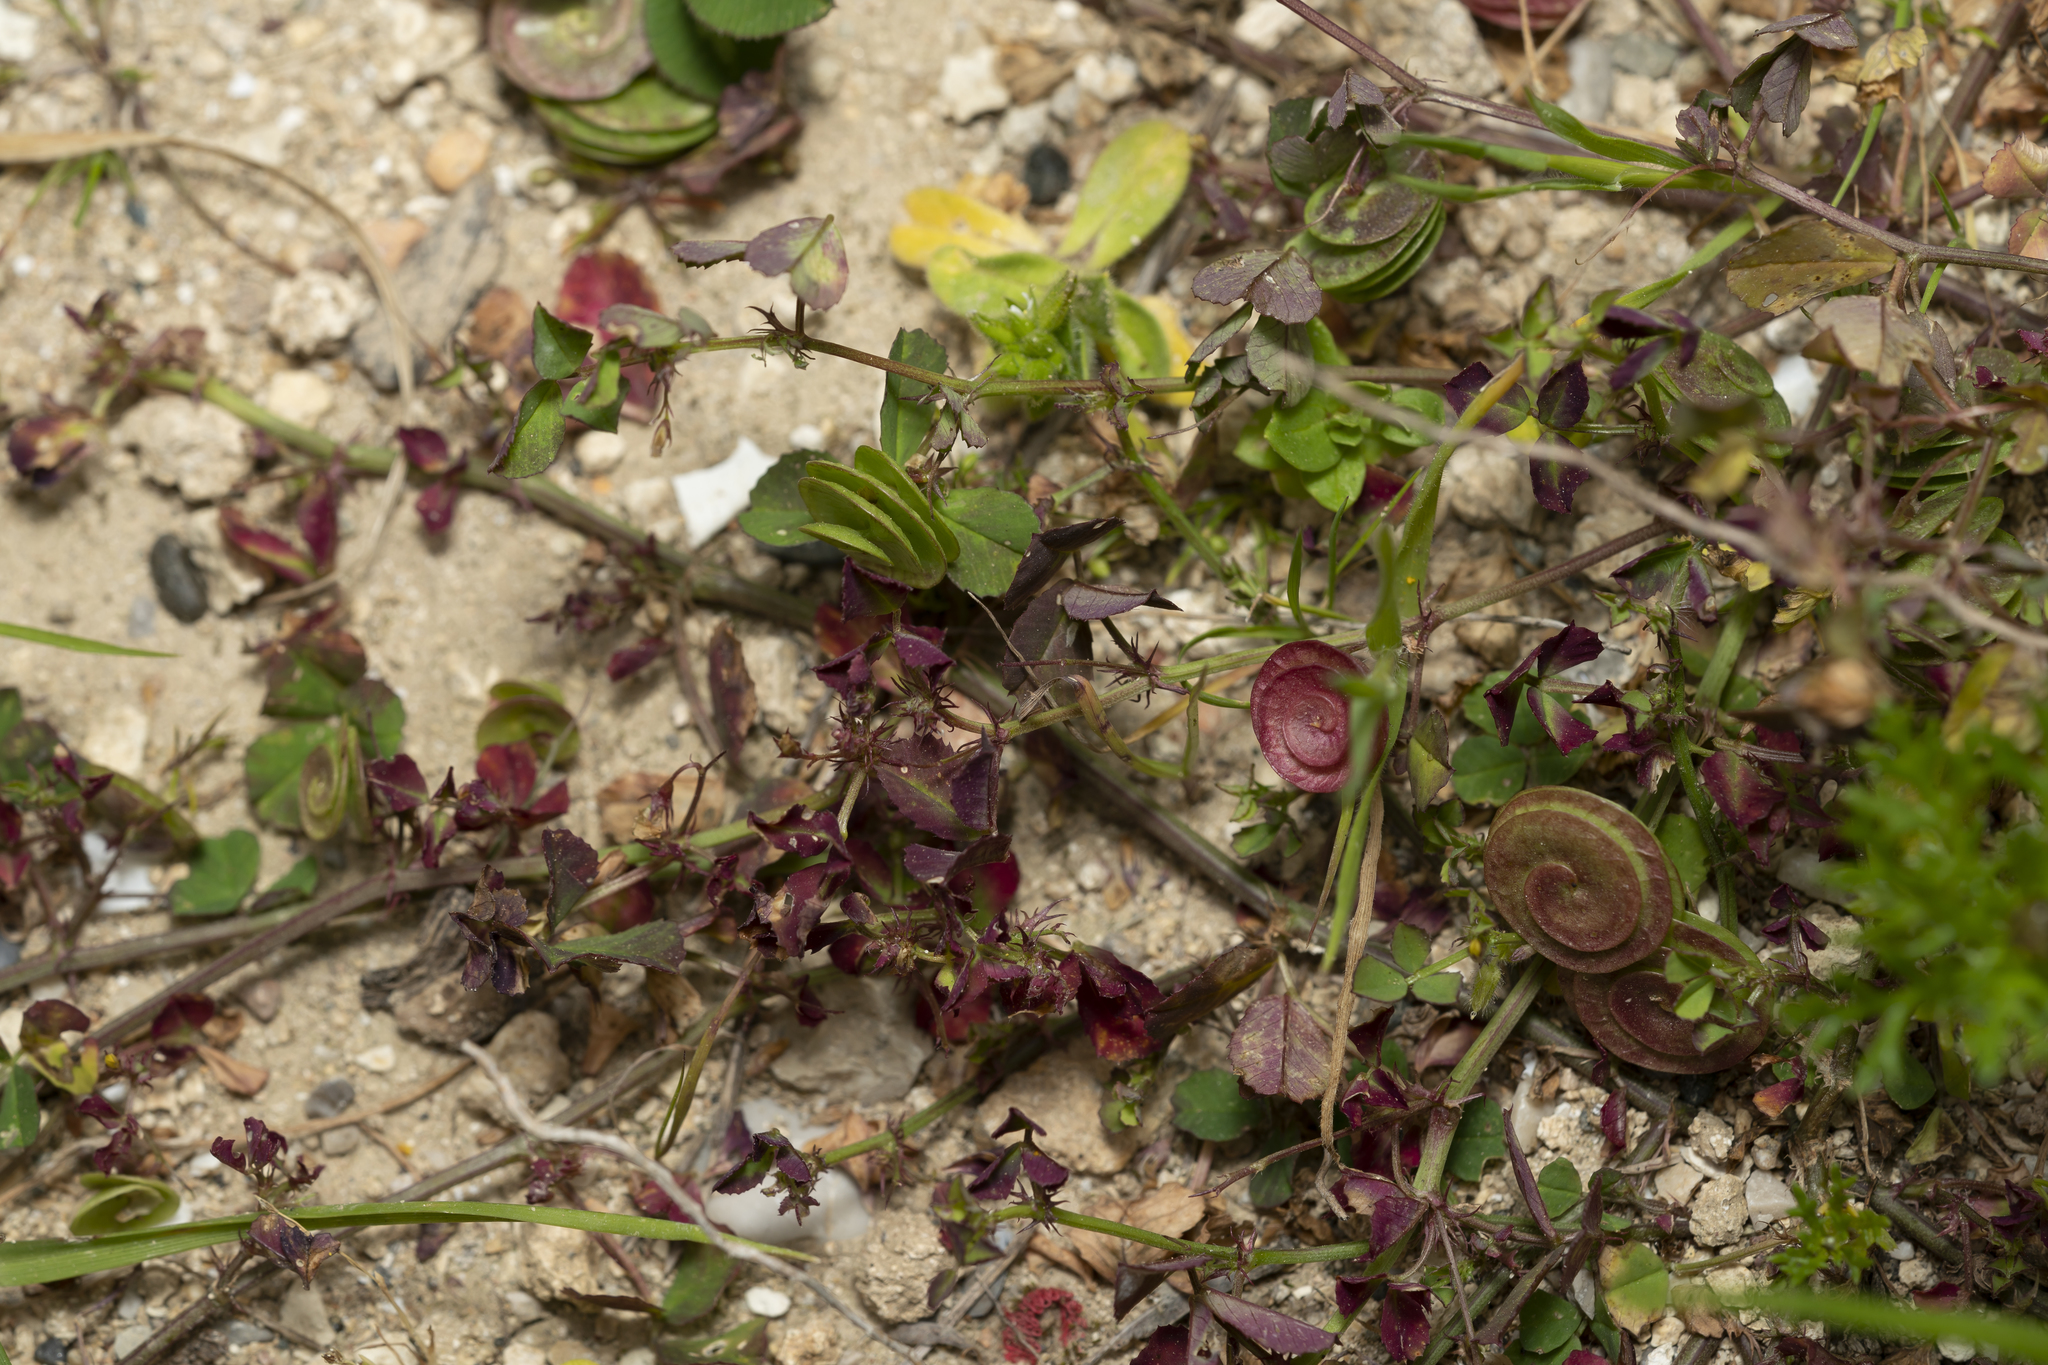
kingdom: Plantae
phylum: Tracheophyta
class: Magnoliopsida
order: Fabales
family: Fabaceae
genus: Medicago
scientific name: Medicago orbicularis
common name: Button medick
